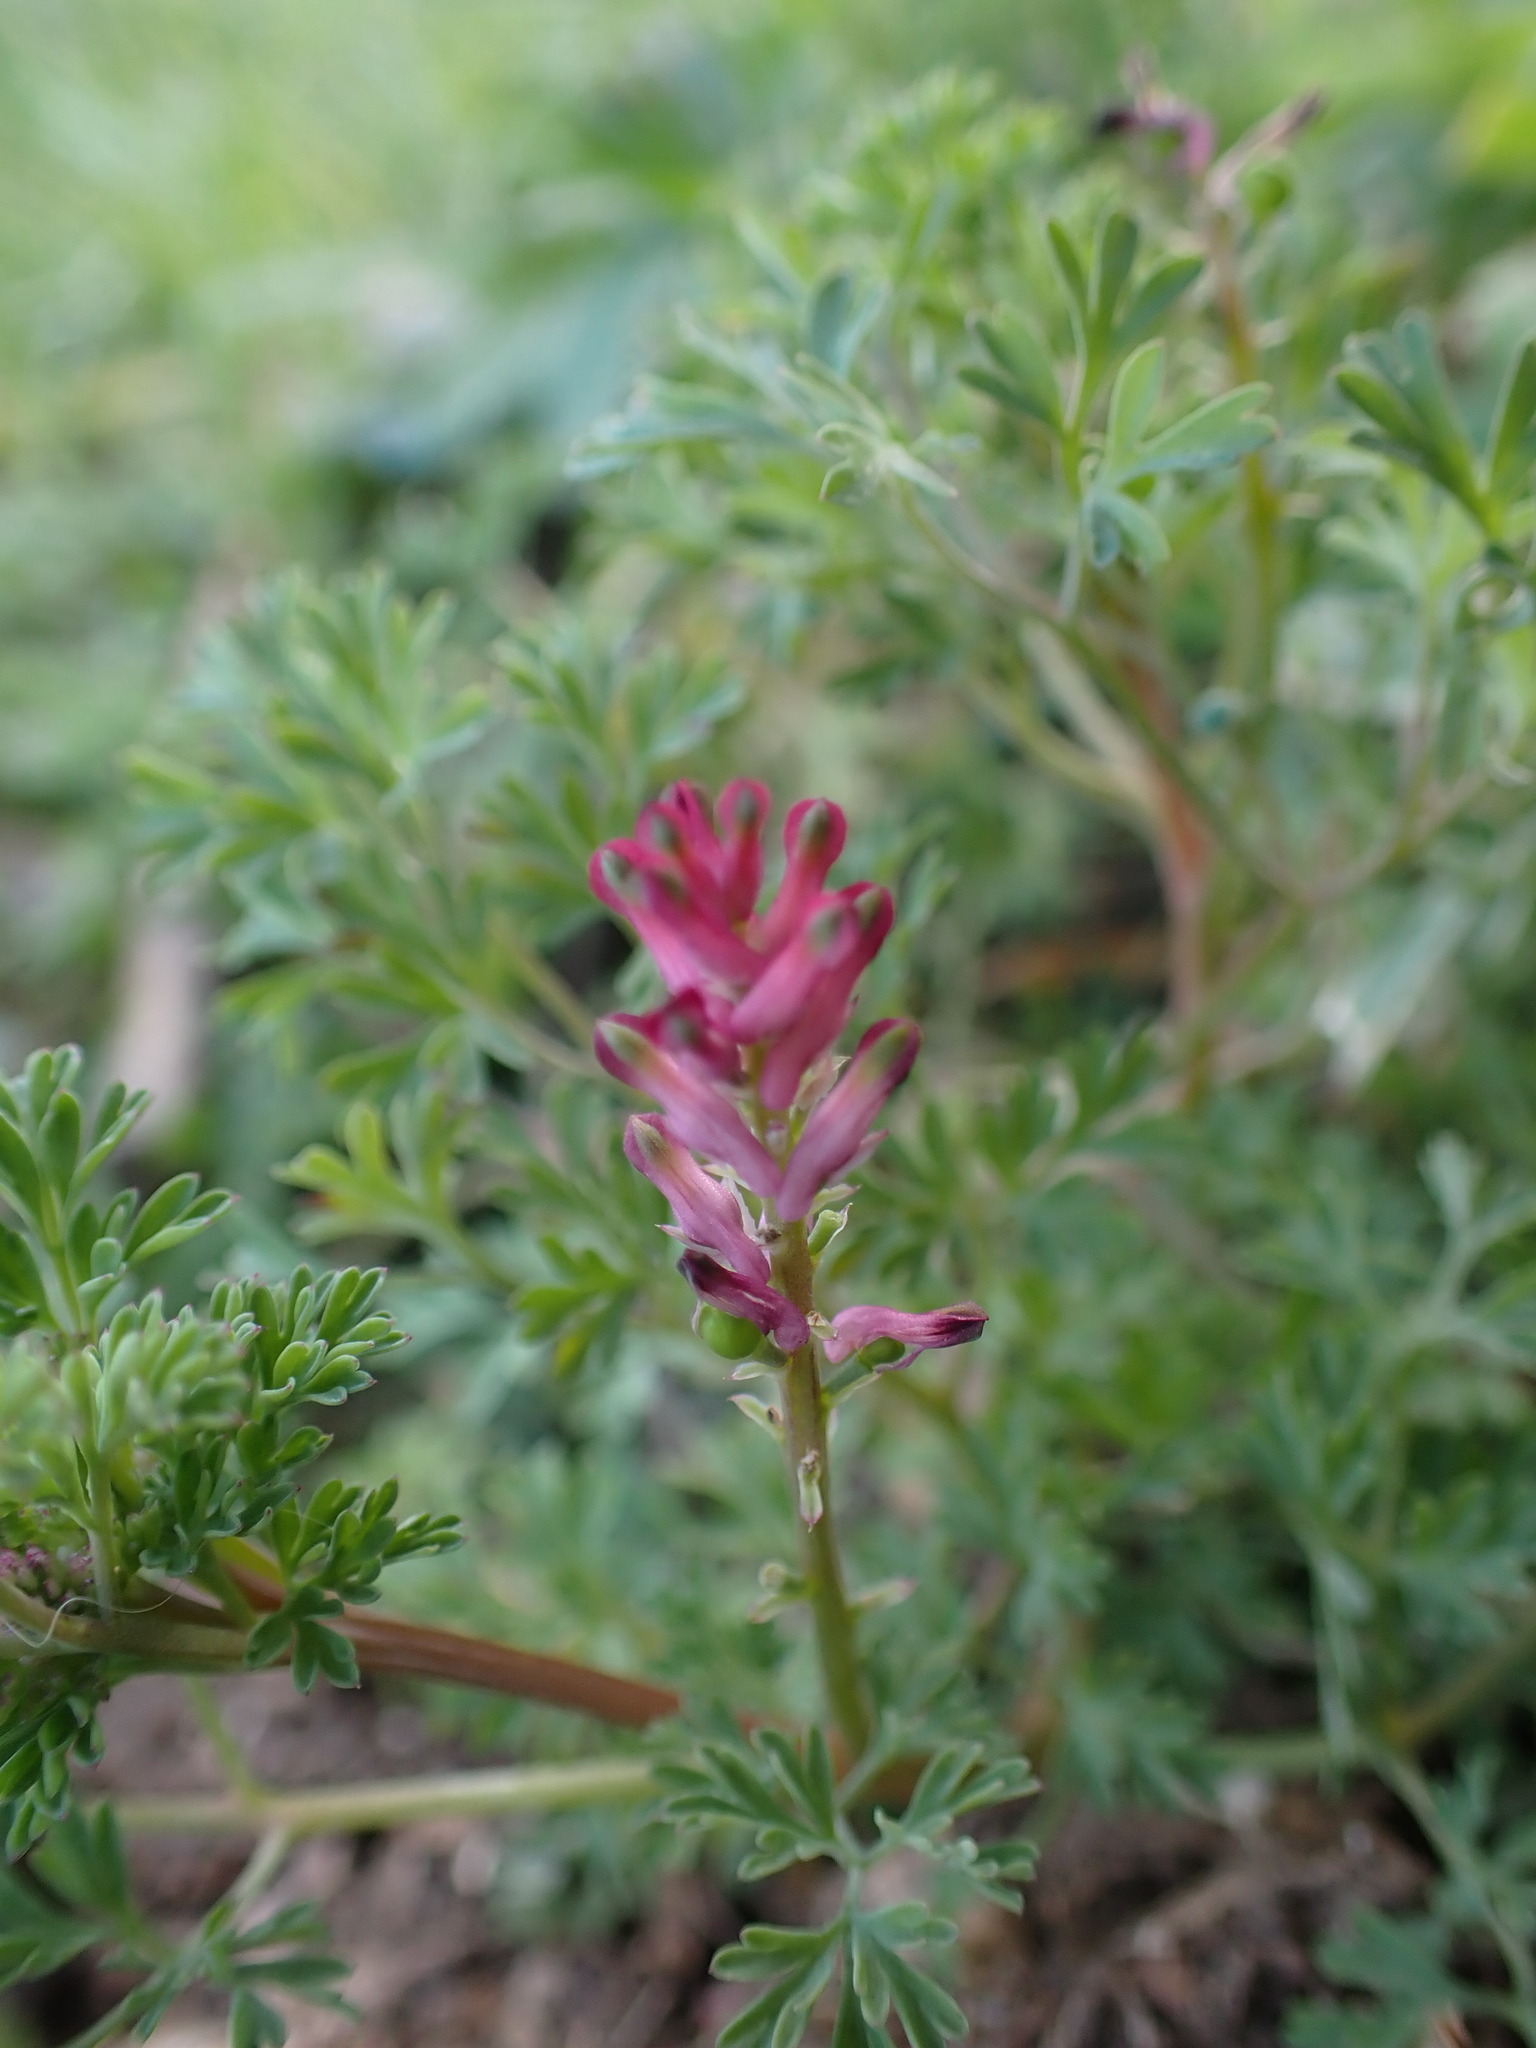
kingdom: Plantae
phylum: Tracheophyta
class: Magnoliopsida
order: Ranunculales
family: Papaveraceae
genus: Fumaria
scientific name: Fumaria officinalis
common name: Common fumitory
